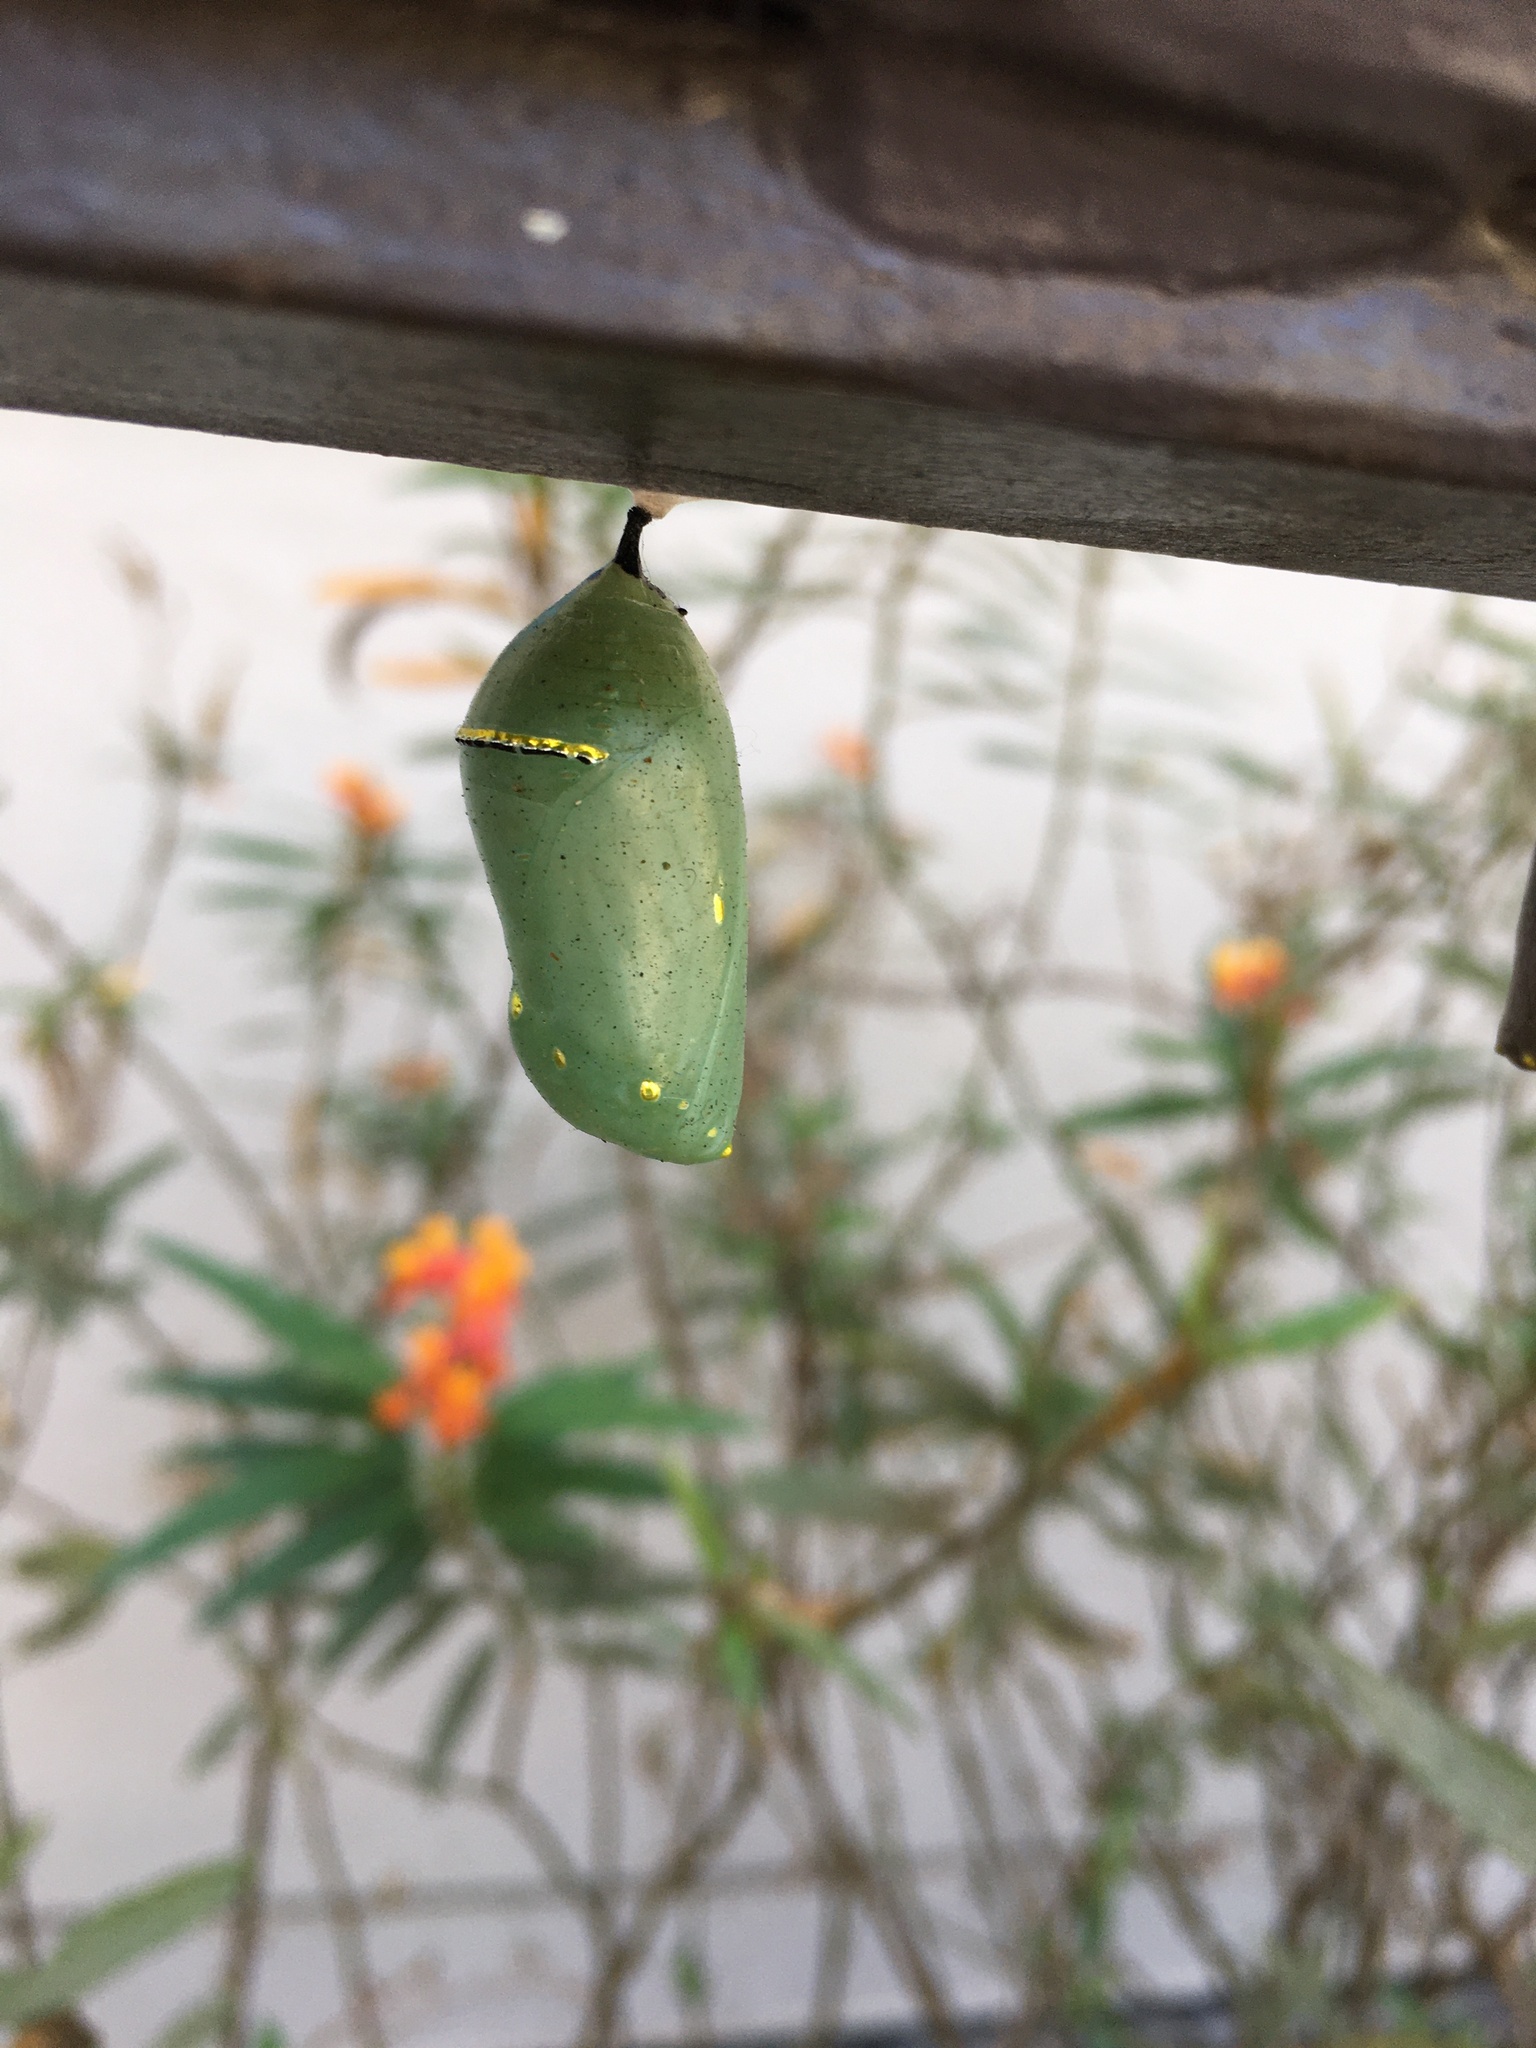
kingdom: Animalia
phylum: Arthropoda
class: Insecta
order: Lepidoptera
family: Nymphalidae
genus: Danaus
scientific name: Danaus plexippus
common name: Monarch
